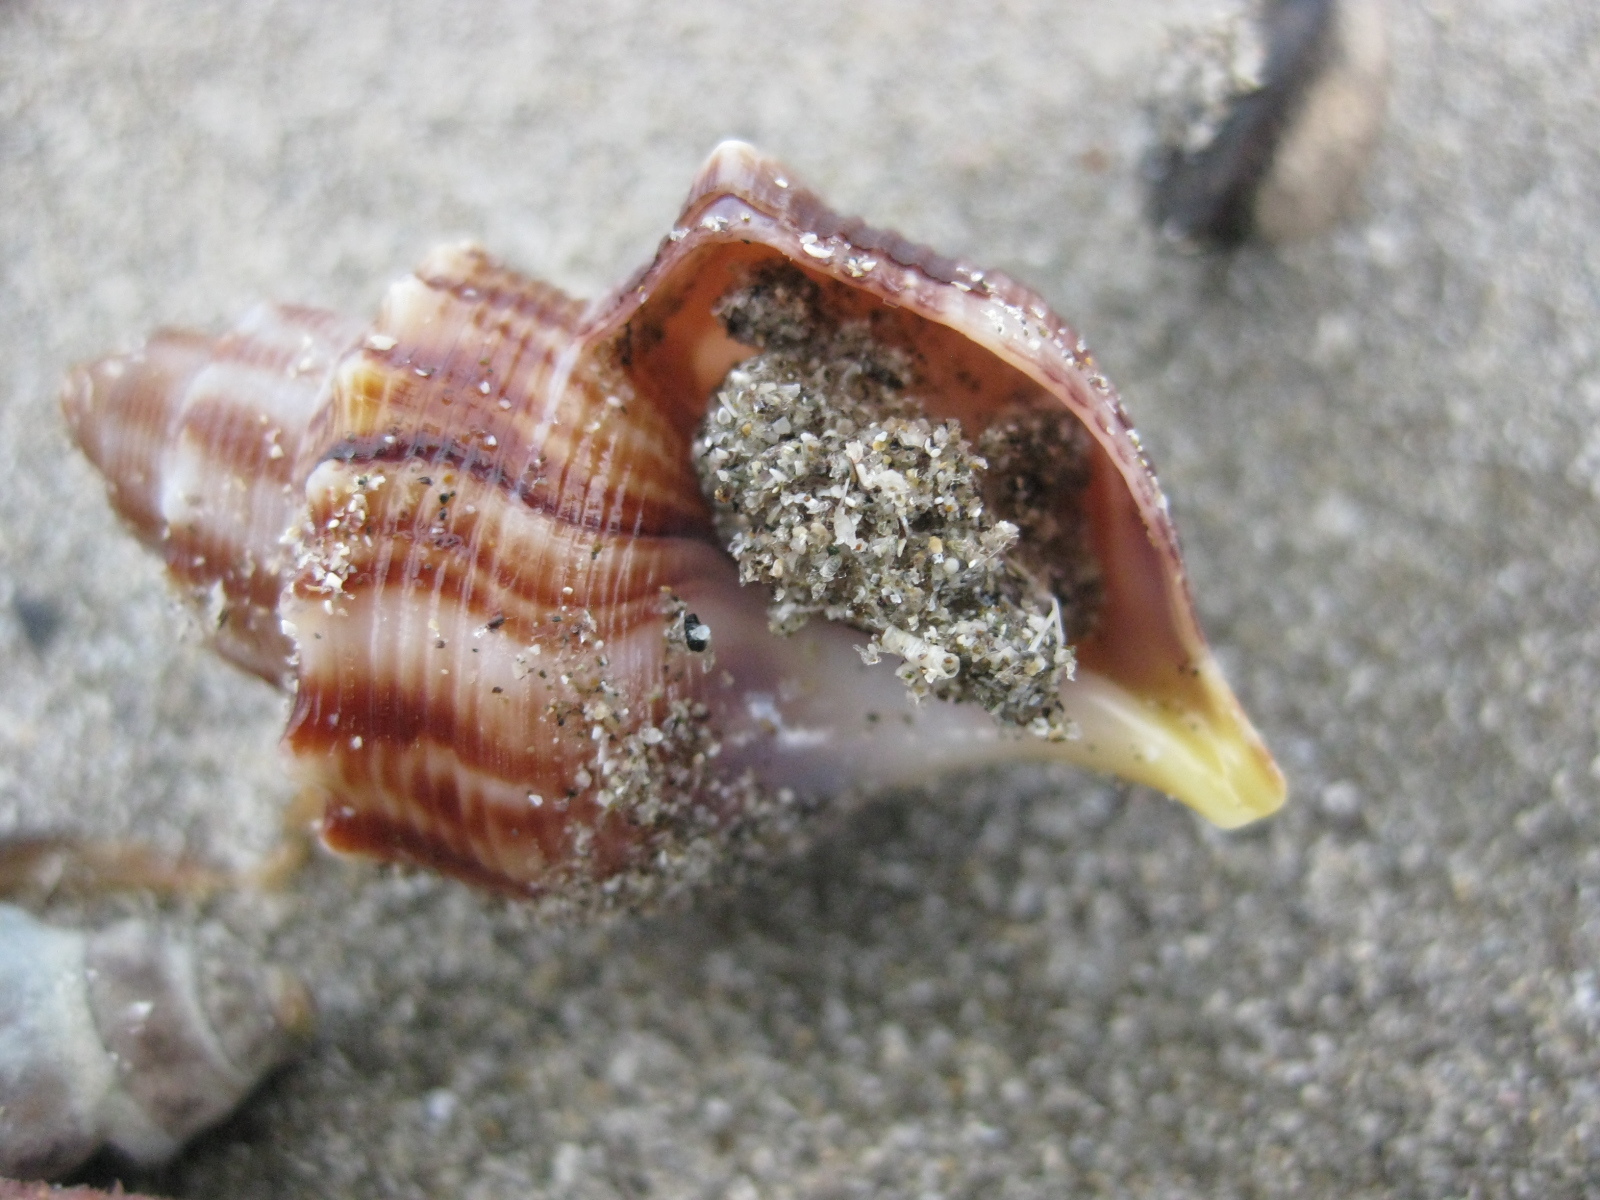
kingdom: Animalia
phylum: Mollusca
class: Gastropoda
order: Littorinimorpha
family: Struthiolariidae
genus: Struthiolaria
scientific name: Struthiolaria papulosa
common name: Large ostrich foot
